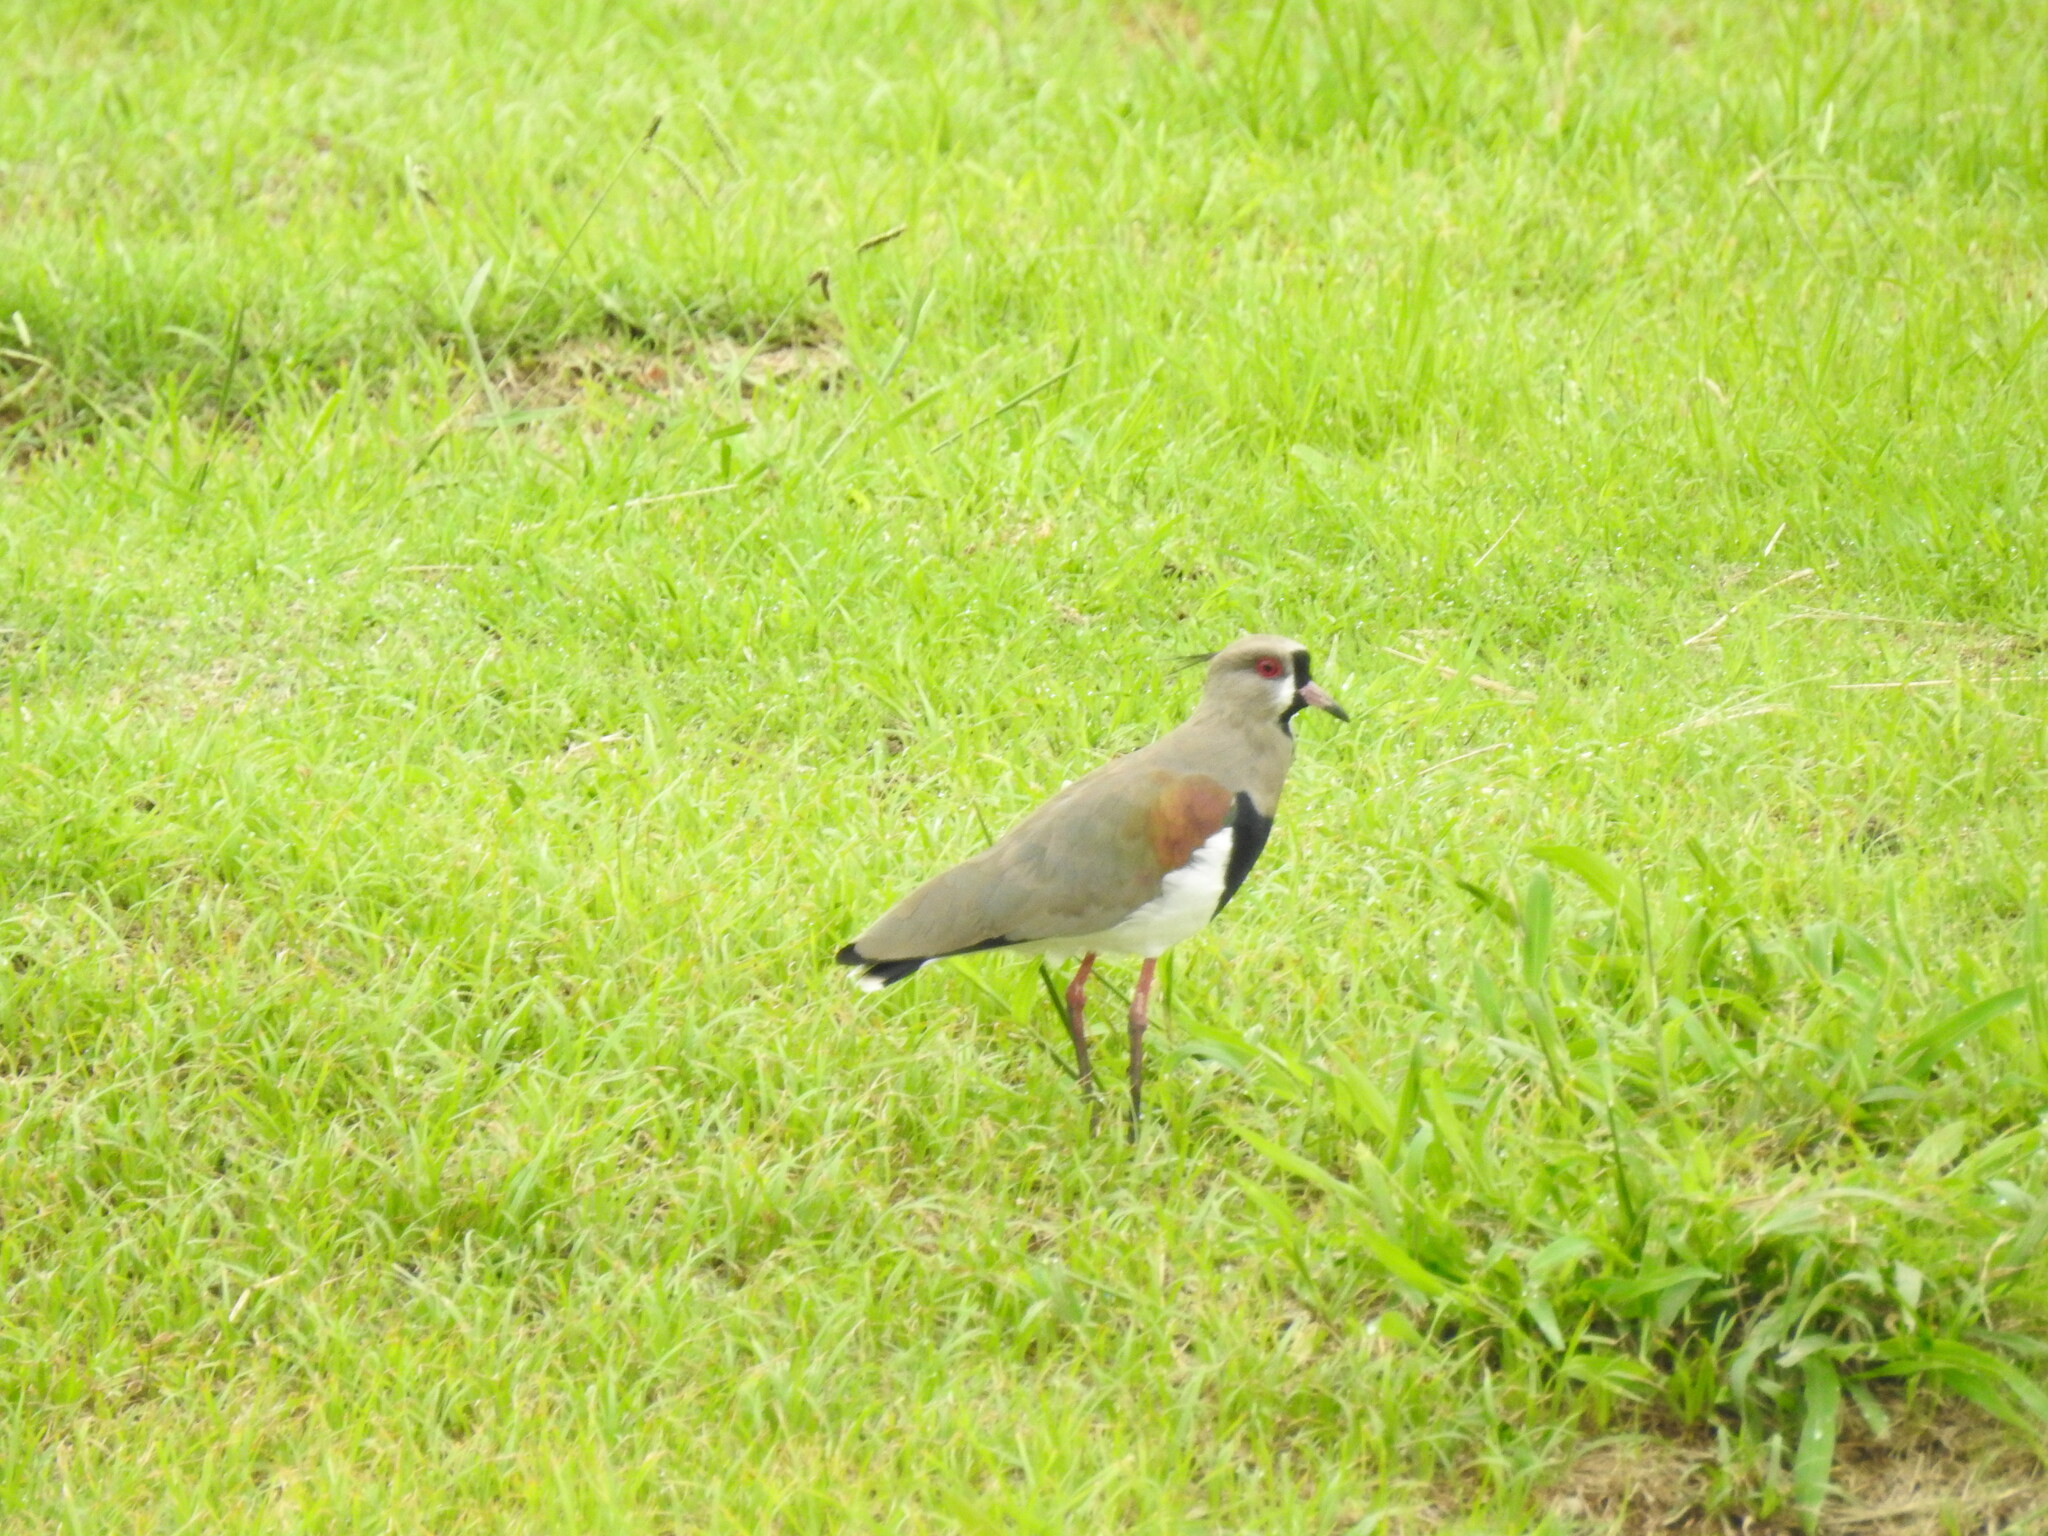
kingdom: Animalia
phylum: Chordata
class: Aves
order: Charadriiformes
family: Charadriidae
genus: Vanellus
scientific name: Vanellus chilensis
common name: Southern lapwing
